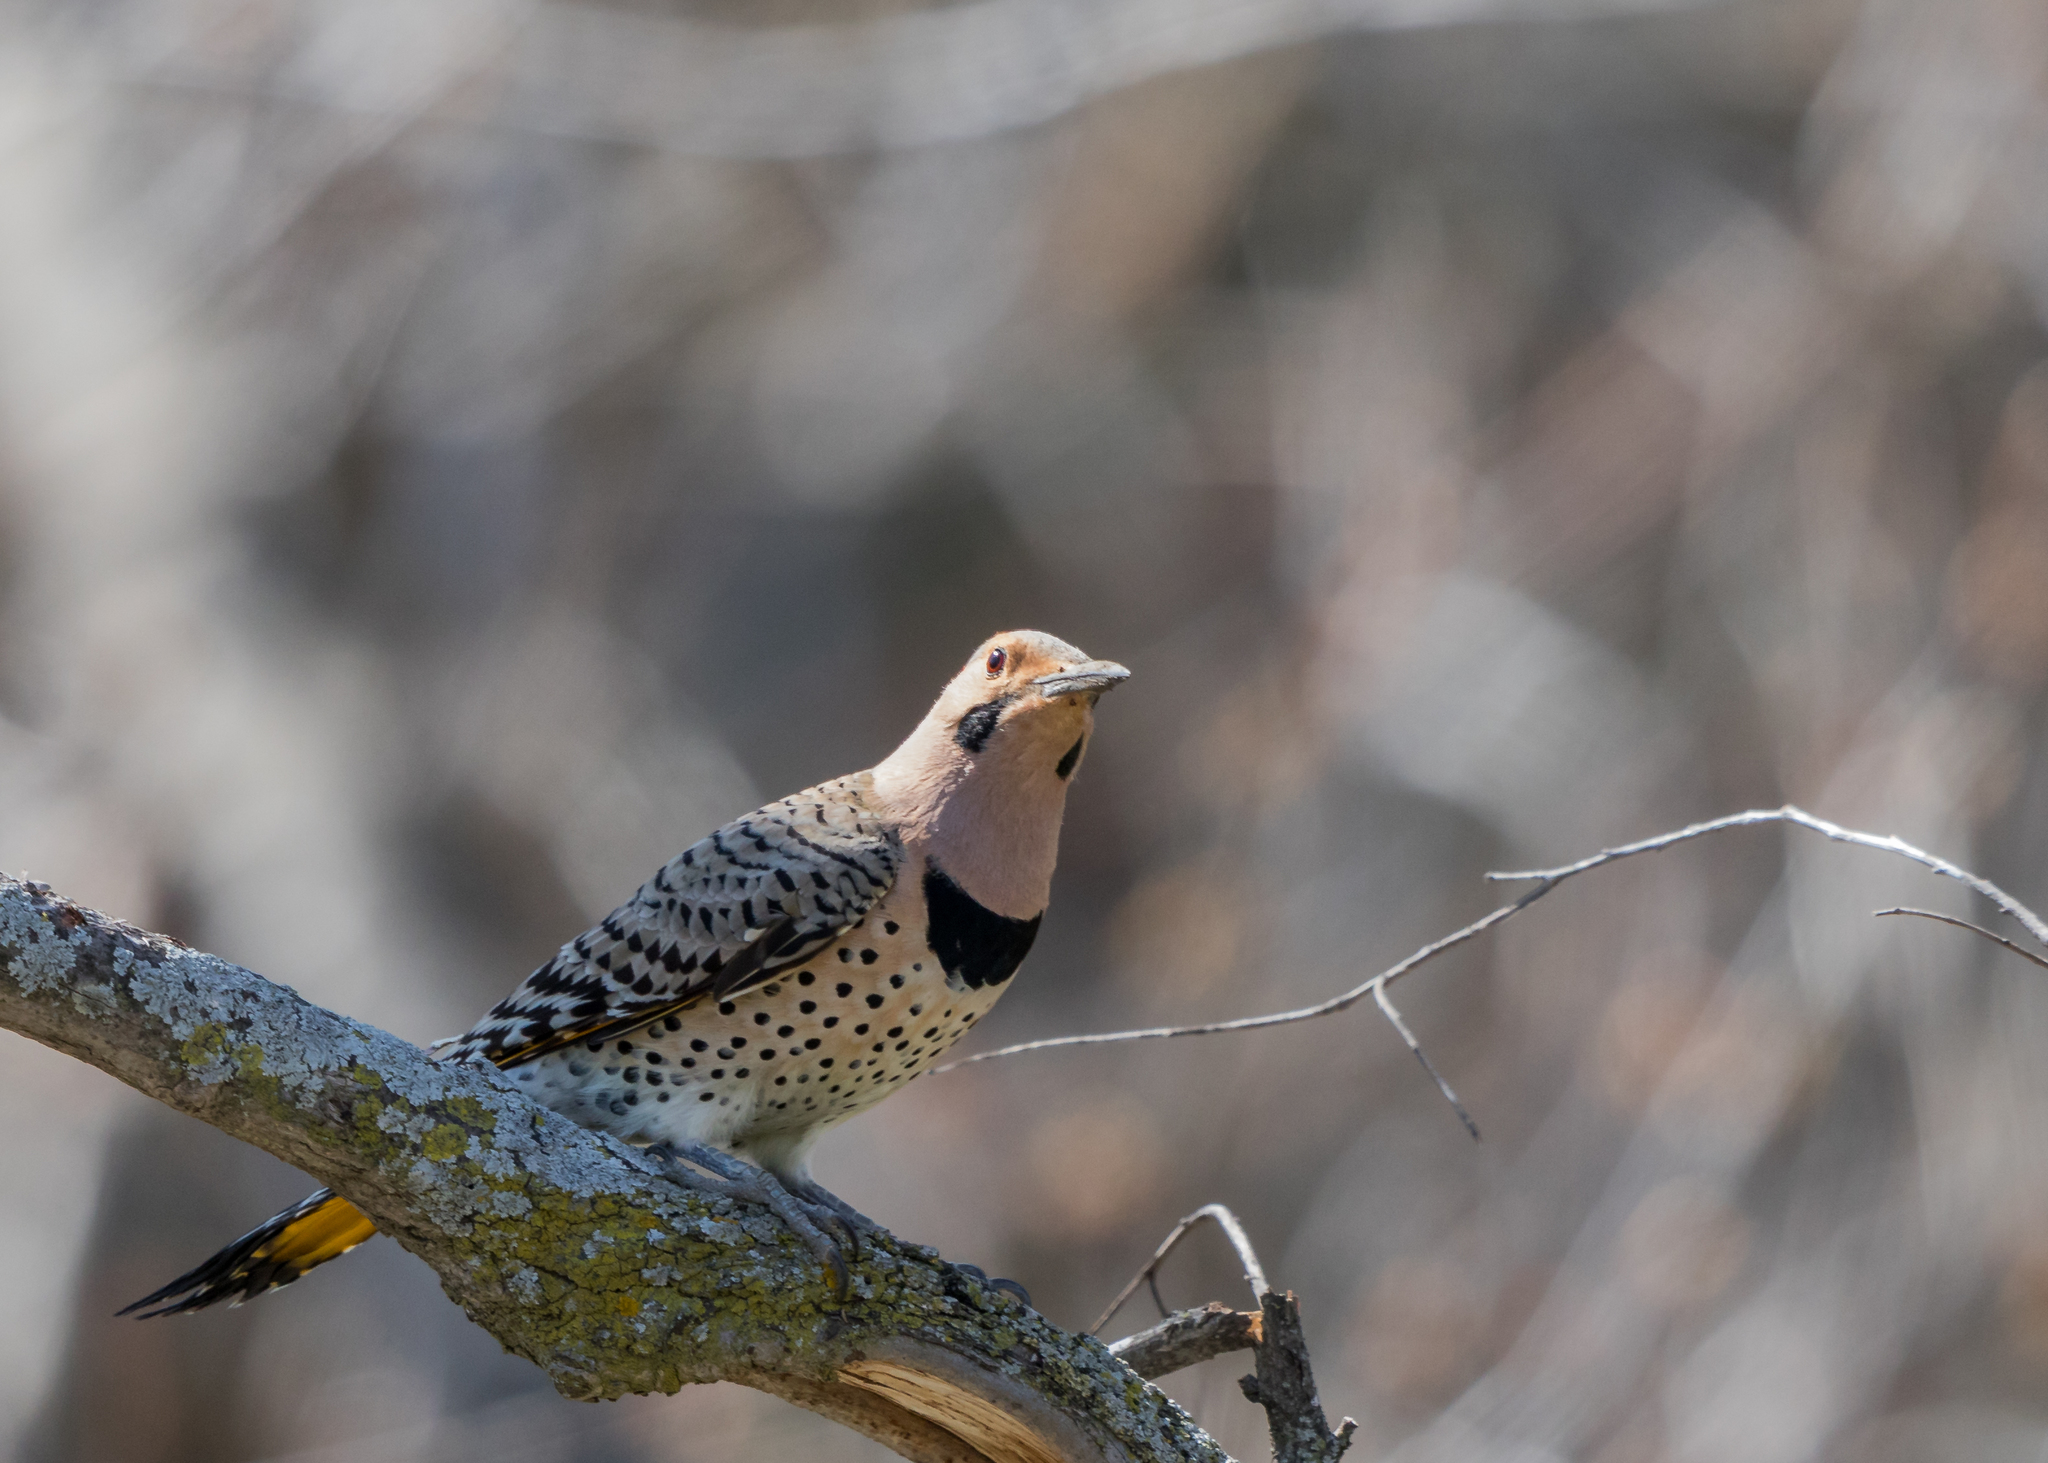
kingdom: Animalia
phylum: Chordata
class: Aves
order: Piciformes
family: Picidae
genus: Colaptes
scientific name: Colaptes auratus
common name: Northern flicker
